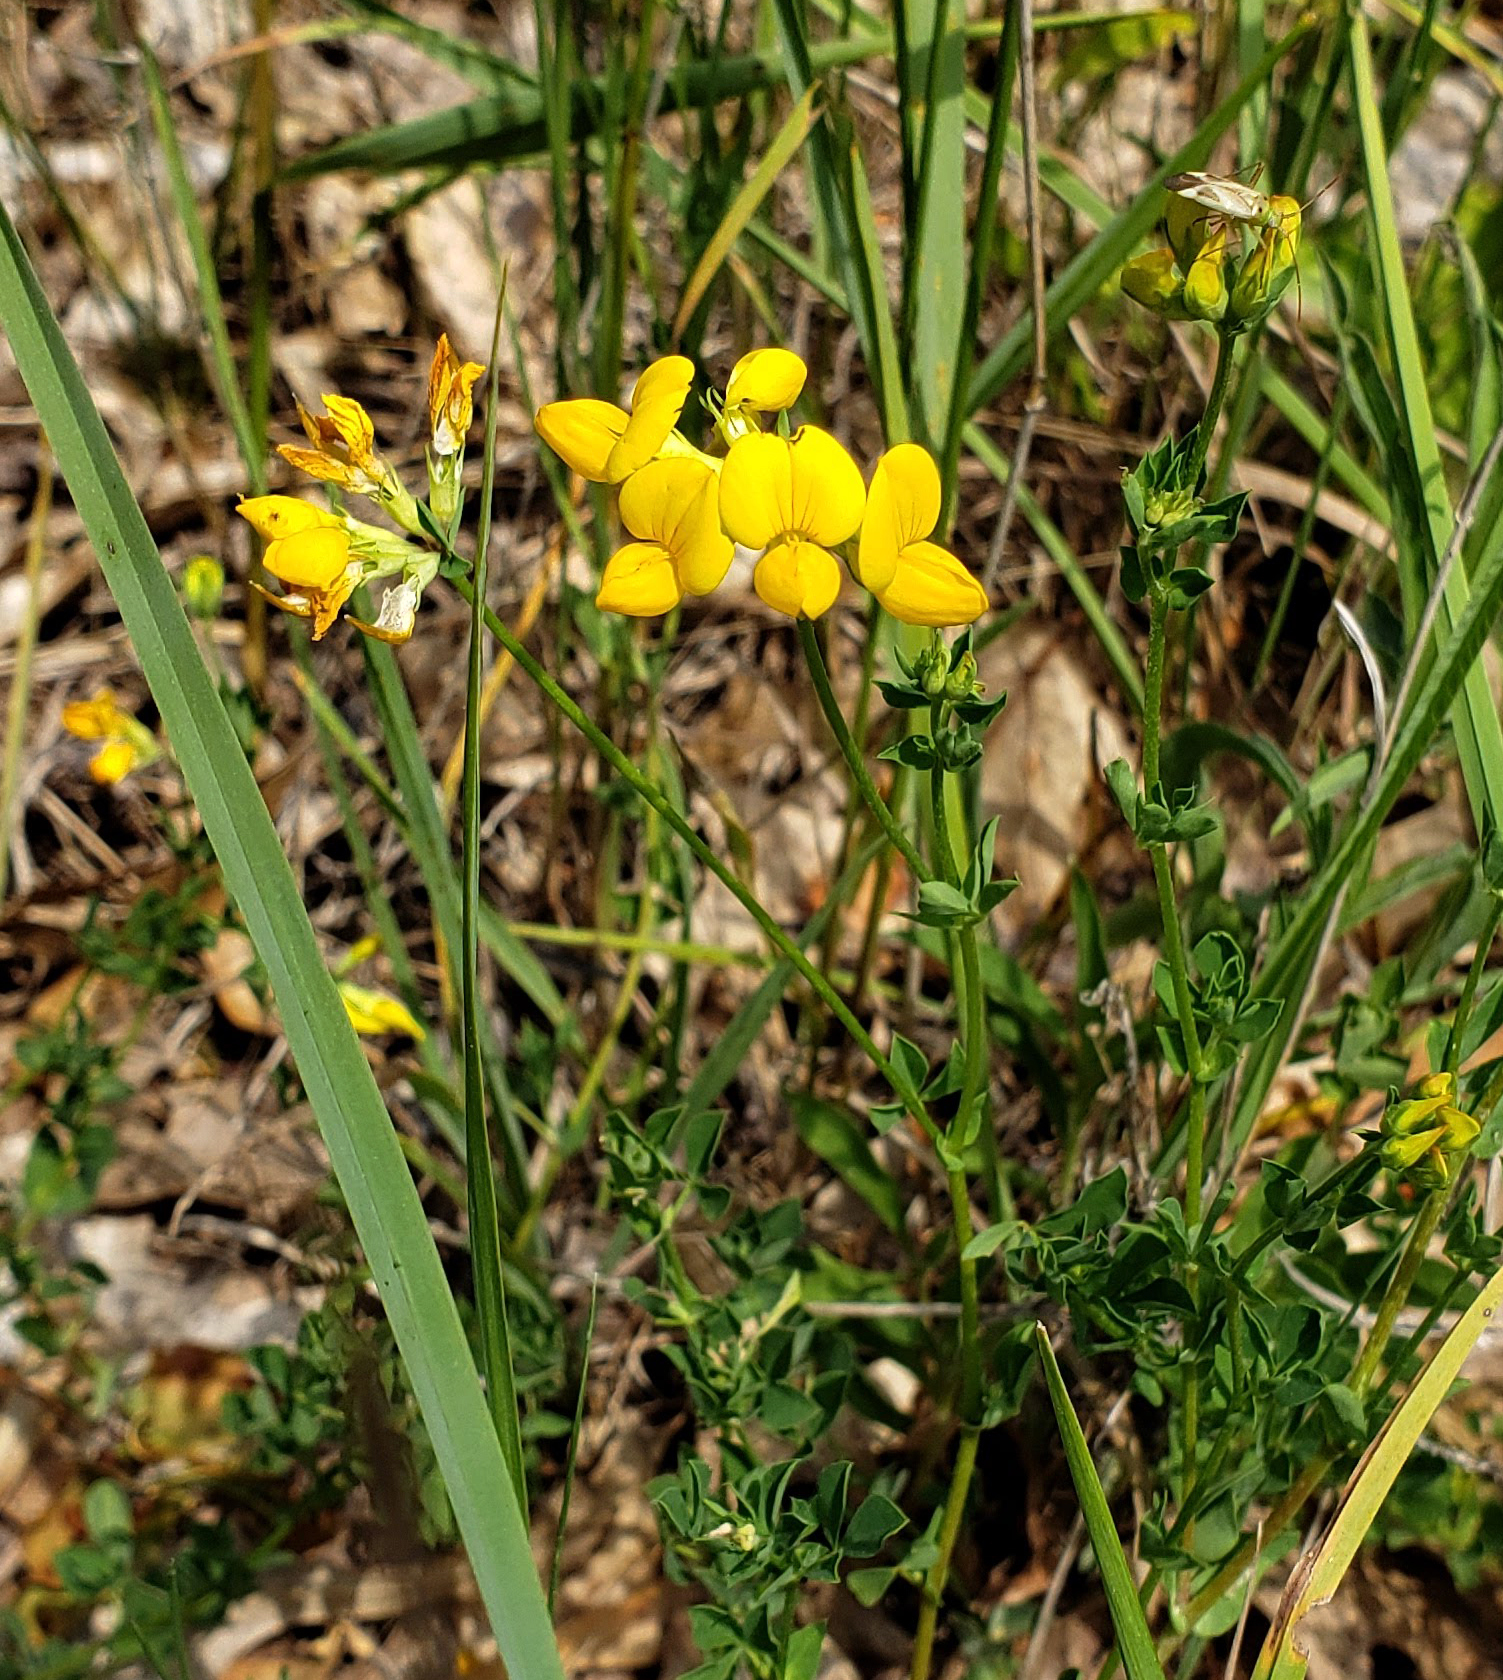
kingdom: Plantae
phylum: Tracheophyta
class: Magnoliopsida
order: Fabales
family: Fabaceae
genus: Lotus
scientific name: Lotus corniculatus
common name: Common bird's-foot-trefoil
